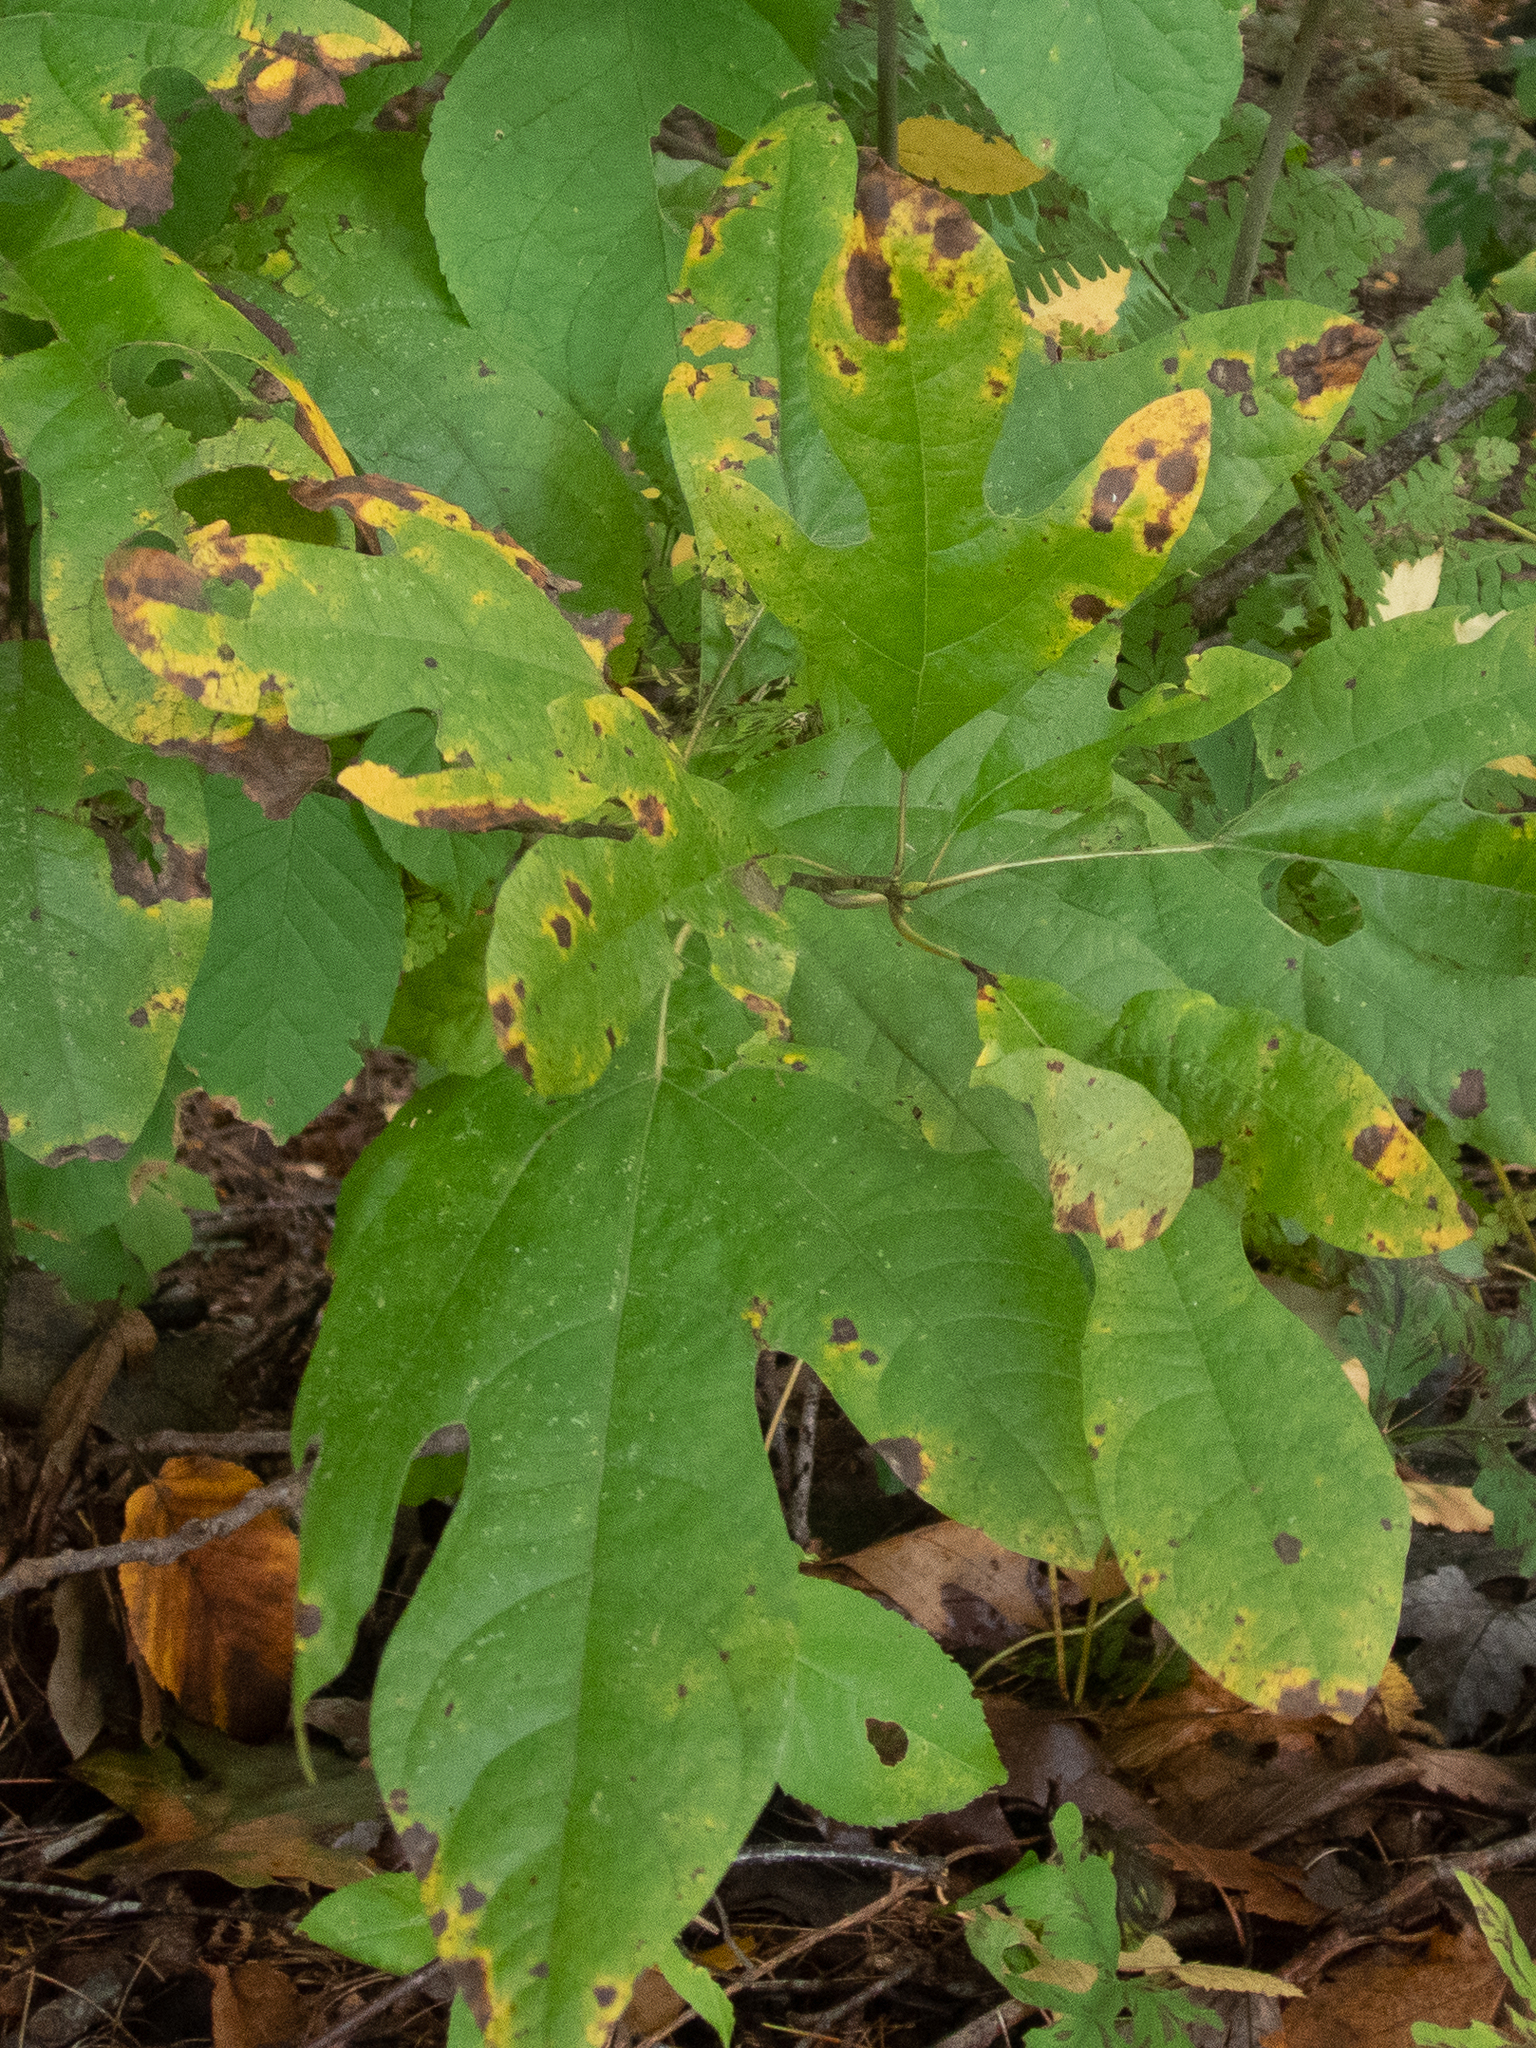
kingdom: Plantae
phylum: Tracheophyta
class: Magnoliopsida
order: Laurales
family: Lauraceae
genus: Sassafras
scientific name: Sassafras albidum
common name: Sassafras
